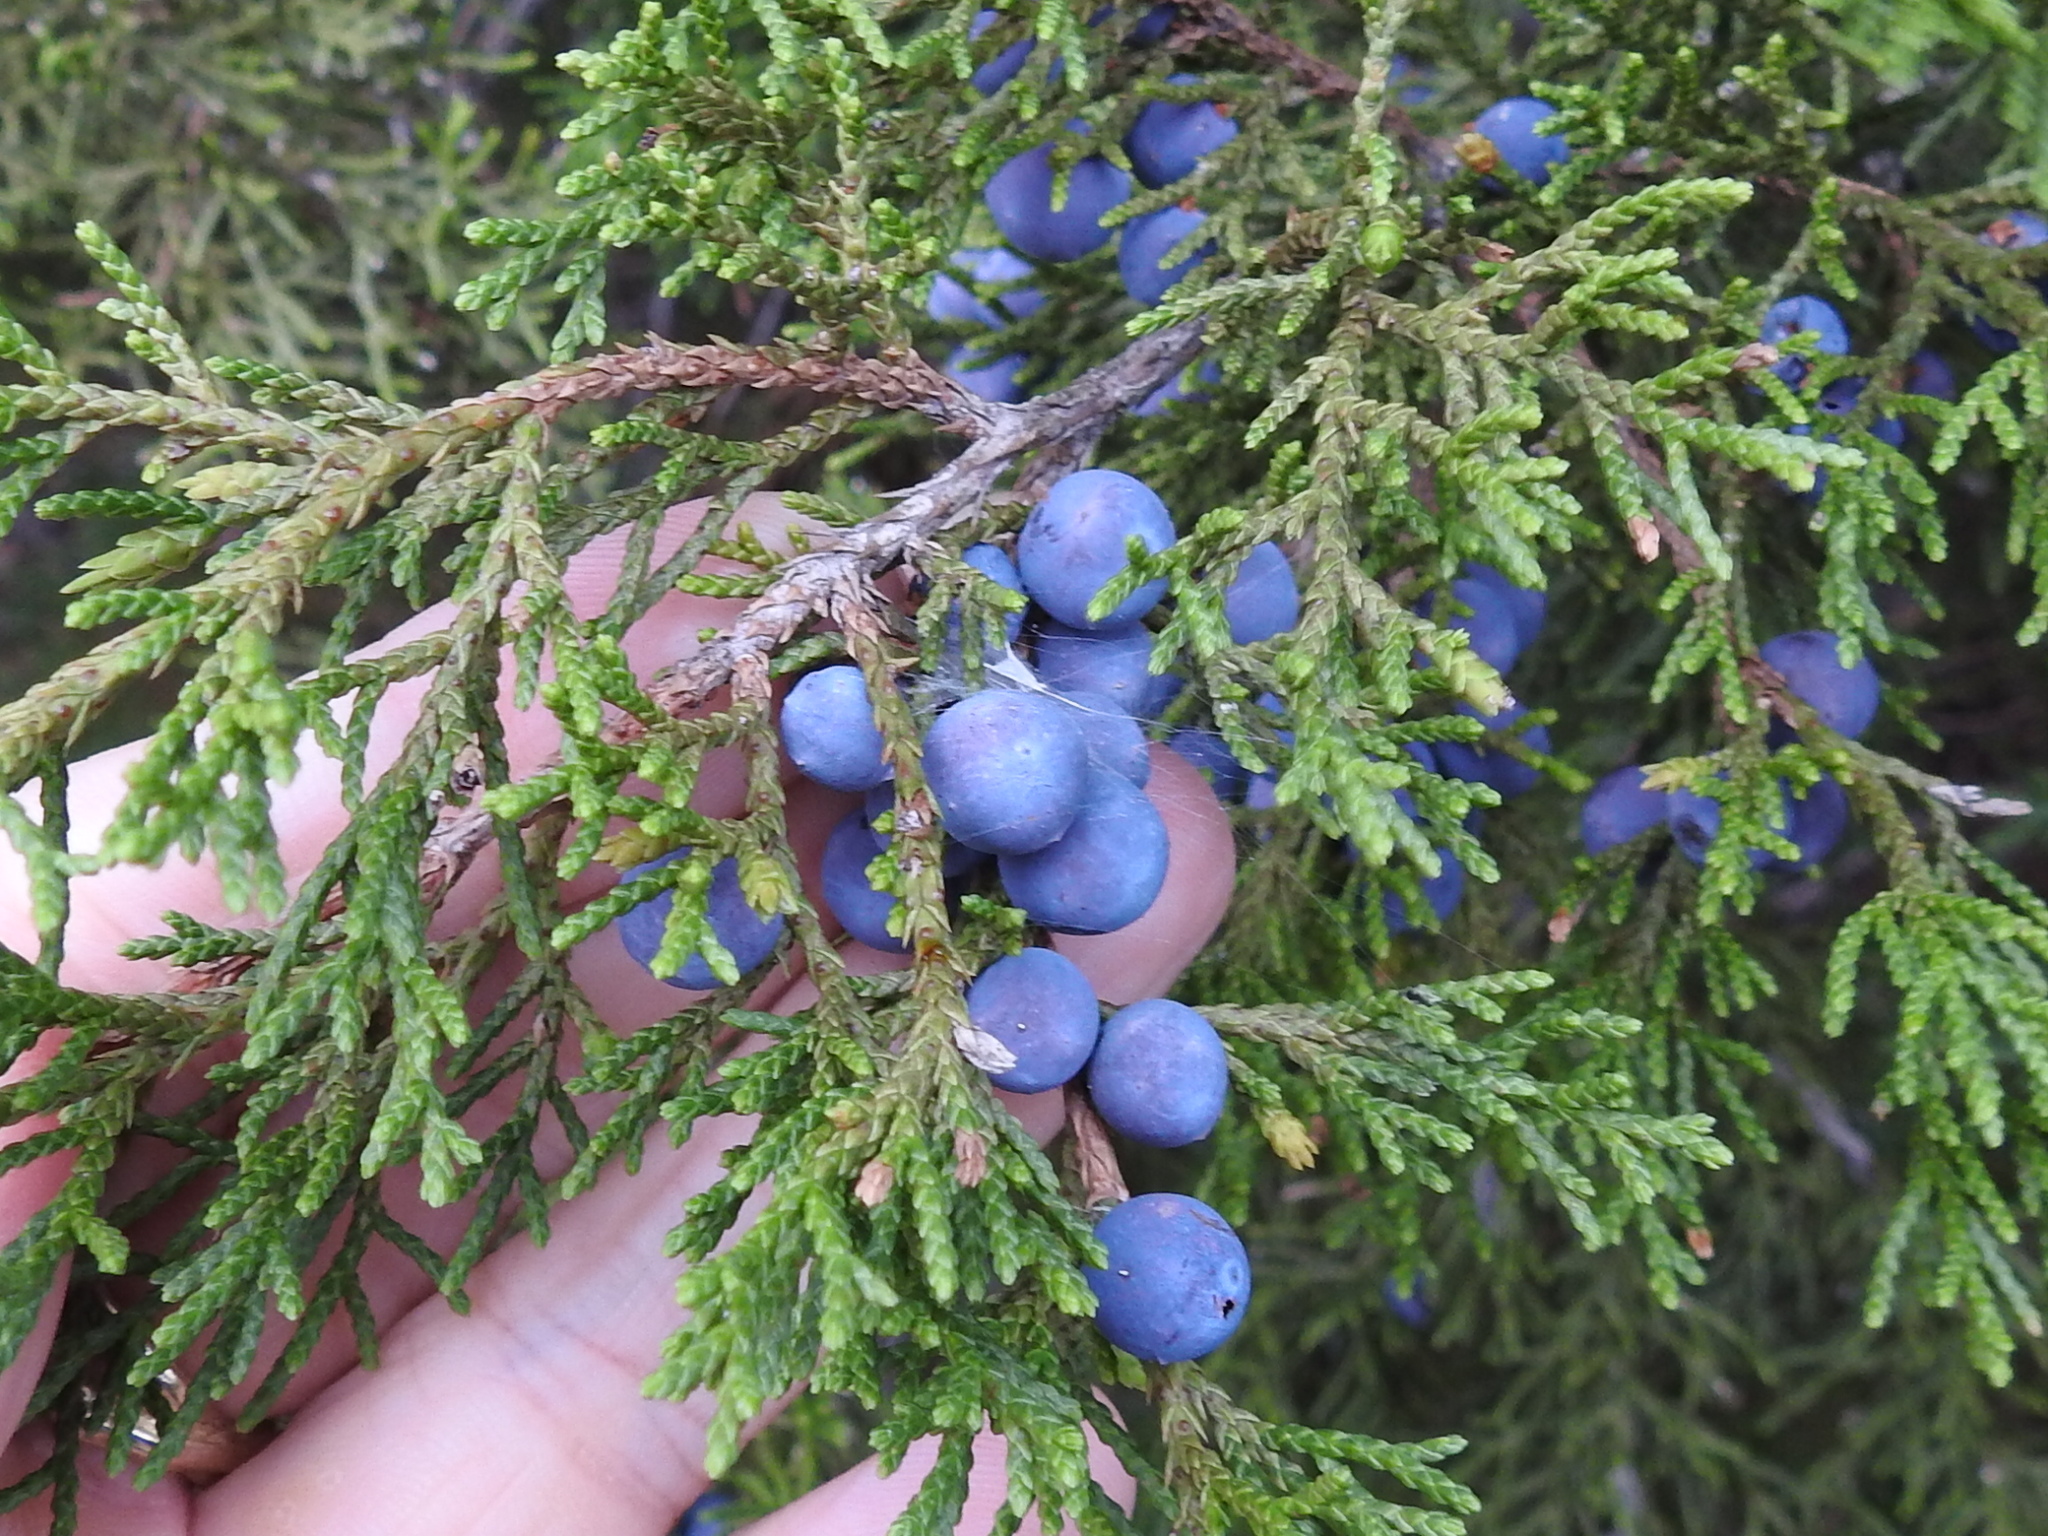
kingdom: Plantae
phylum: Tracheophyta
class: Pinopsida
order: Pinales
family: Cupressaceae
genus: Juniperus
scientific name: Juniperus virginiana
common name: Red juniper
